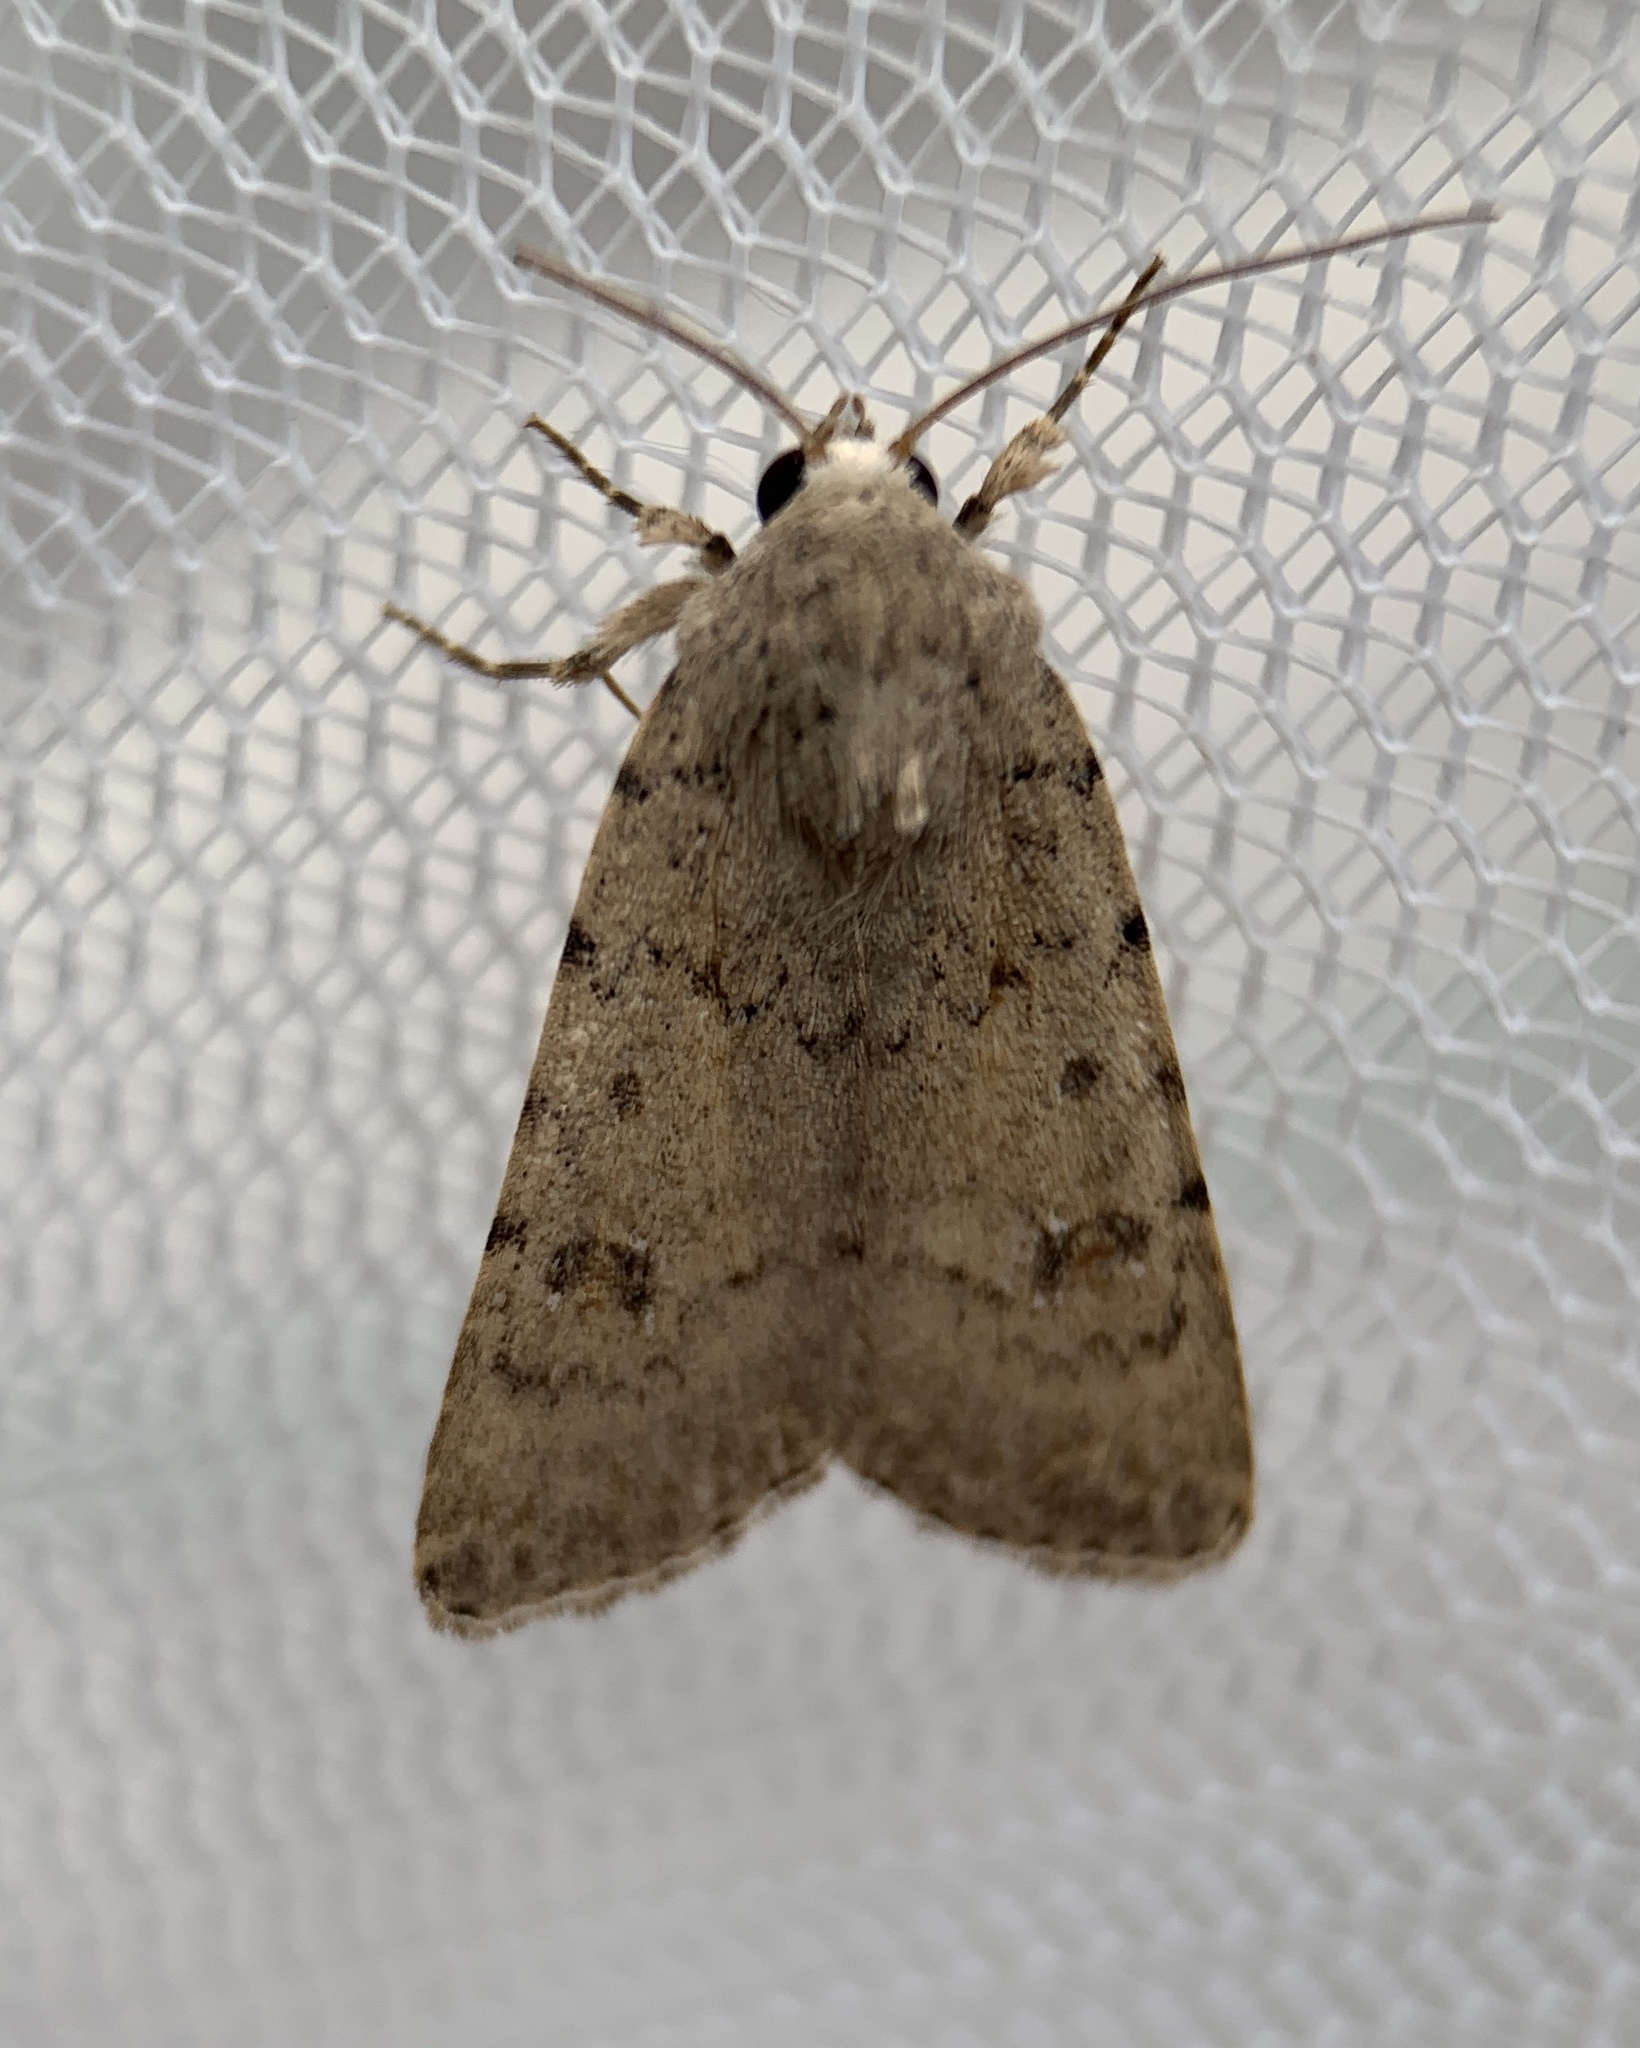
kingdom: Animalia
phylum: Arthropoda
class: Insecta
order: Lepidoptera
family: Noctuidae
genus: Caradrina
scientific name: Caradrina clavipalpis
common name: Pale mottled willow
